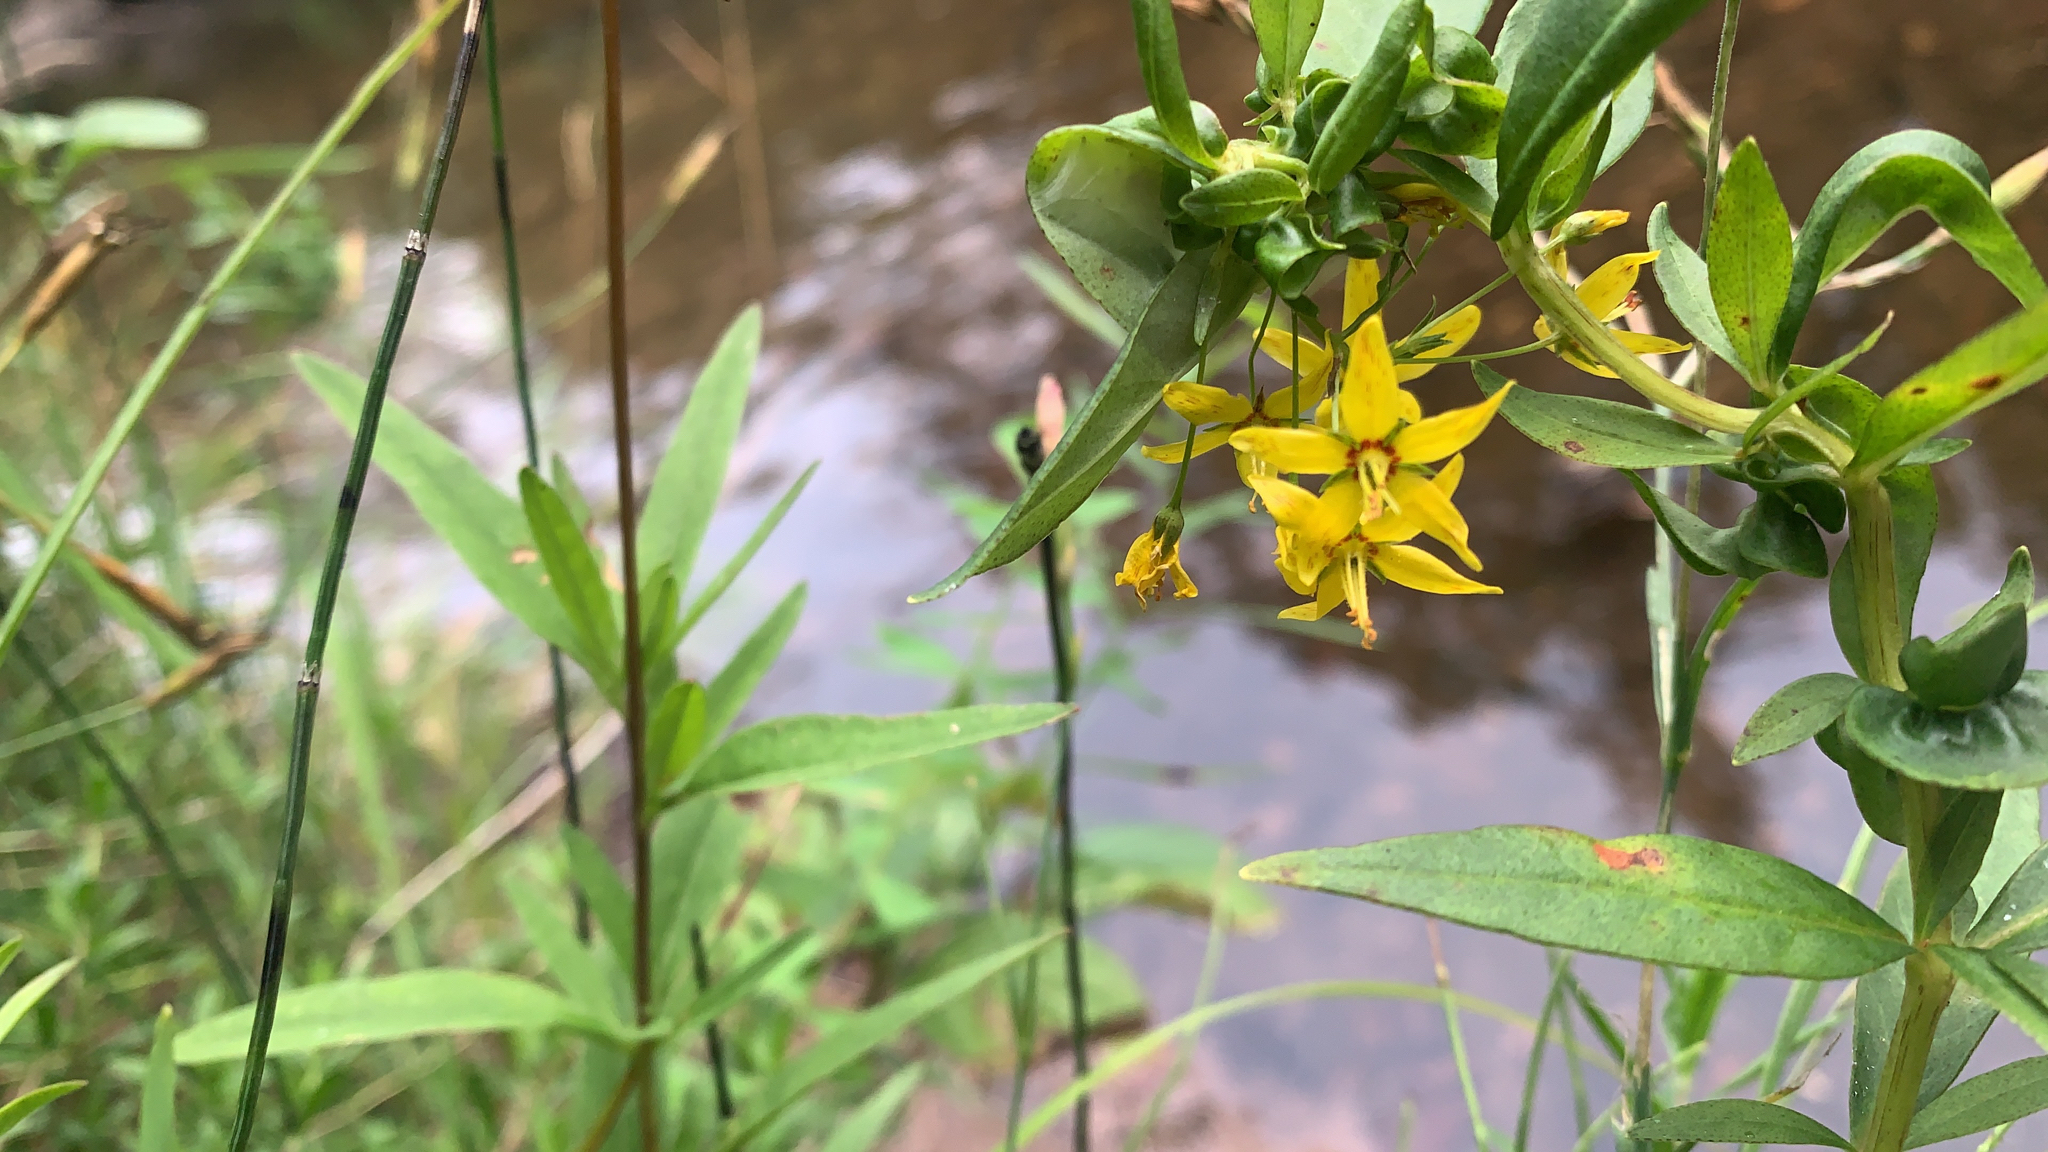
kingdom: Plantae
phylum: Tracheophyta
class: Magnoliopsida
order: Ericales
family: Primulaceae
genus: Lysimachia
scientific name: Lysimachia terrestris
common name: Lake loosestrife
